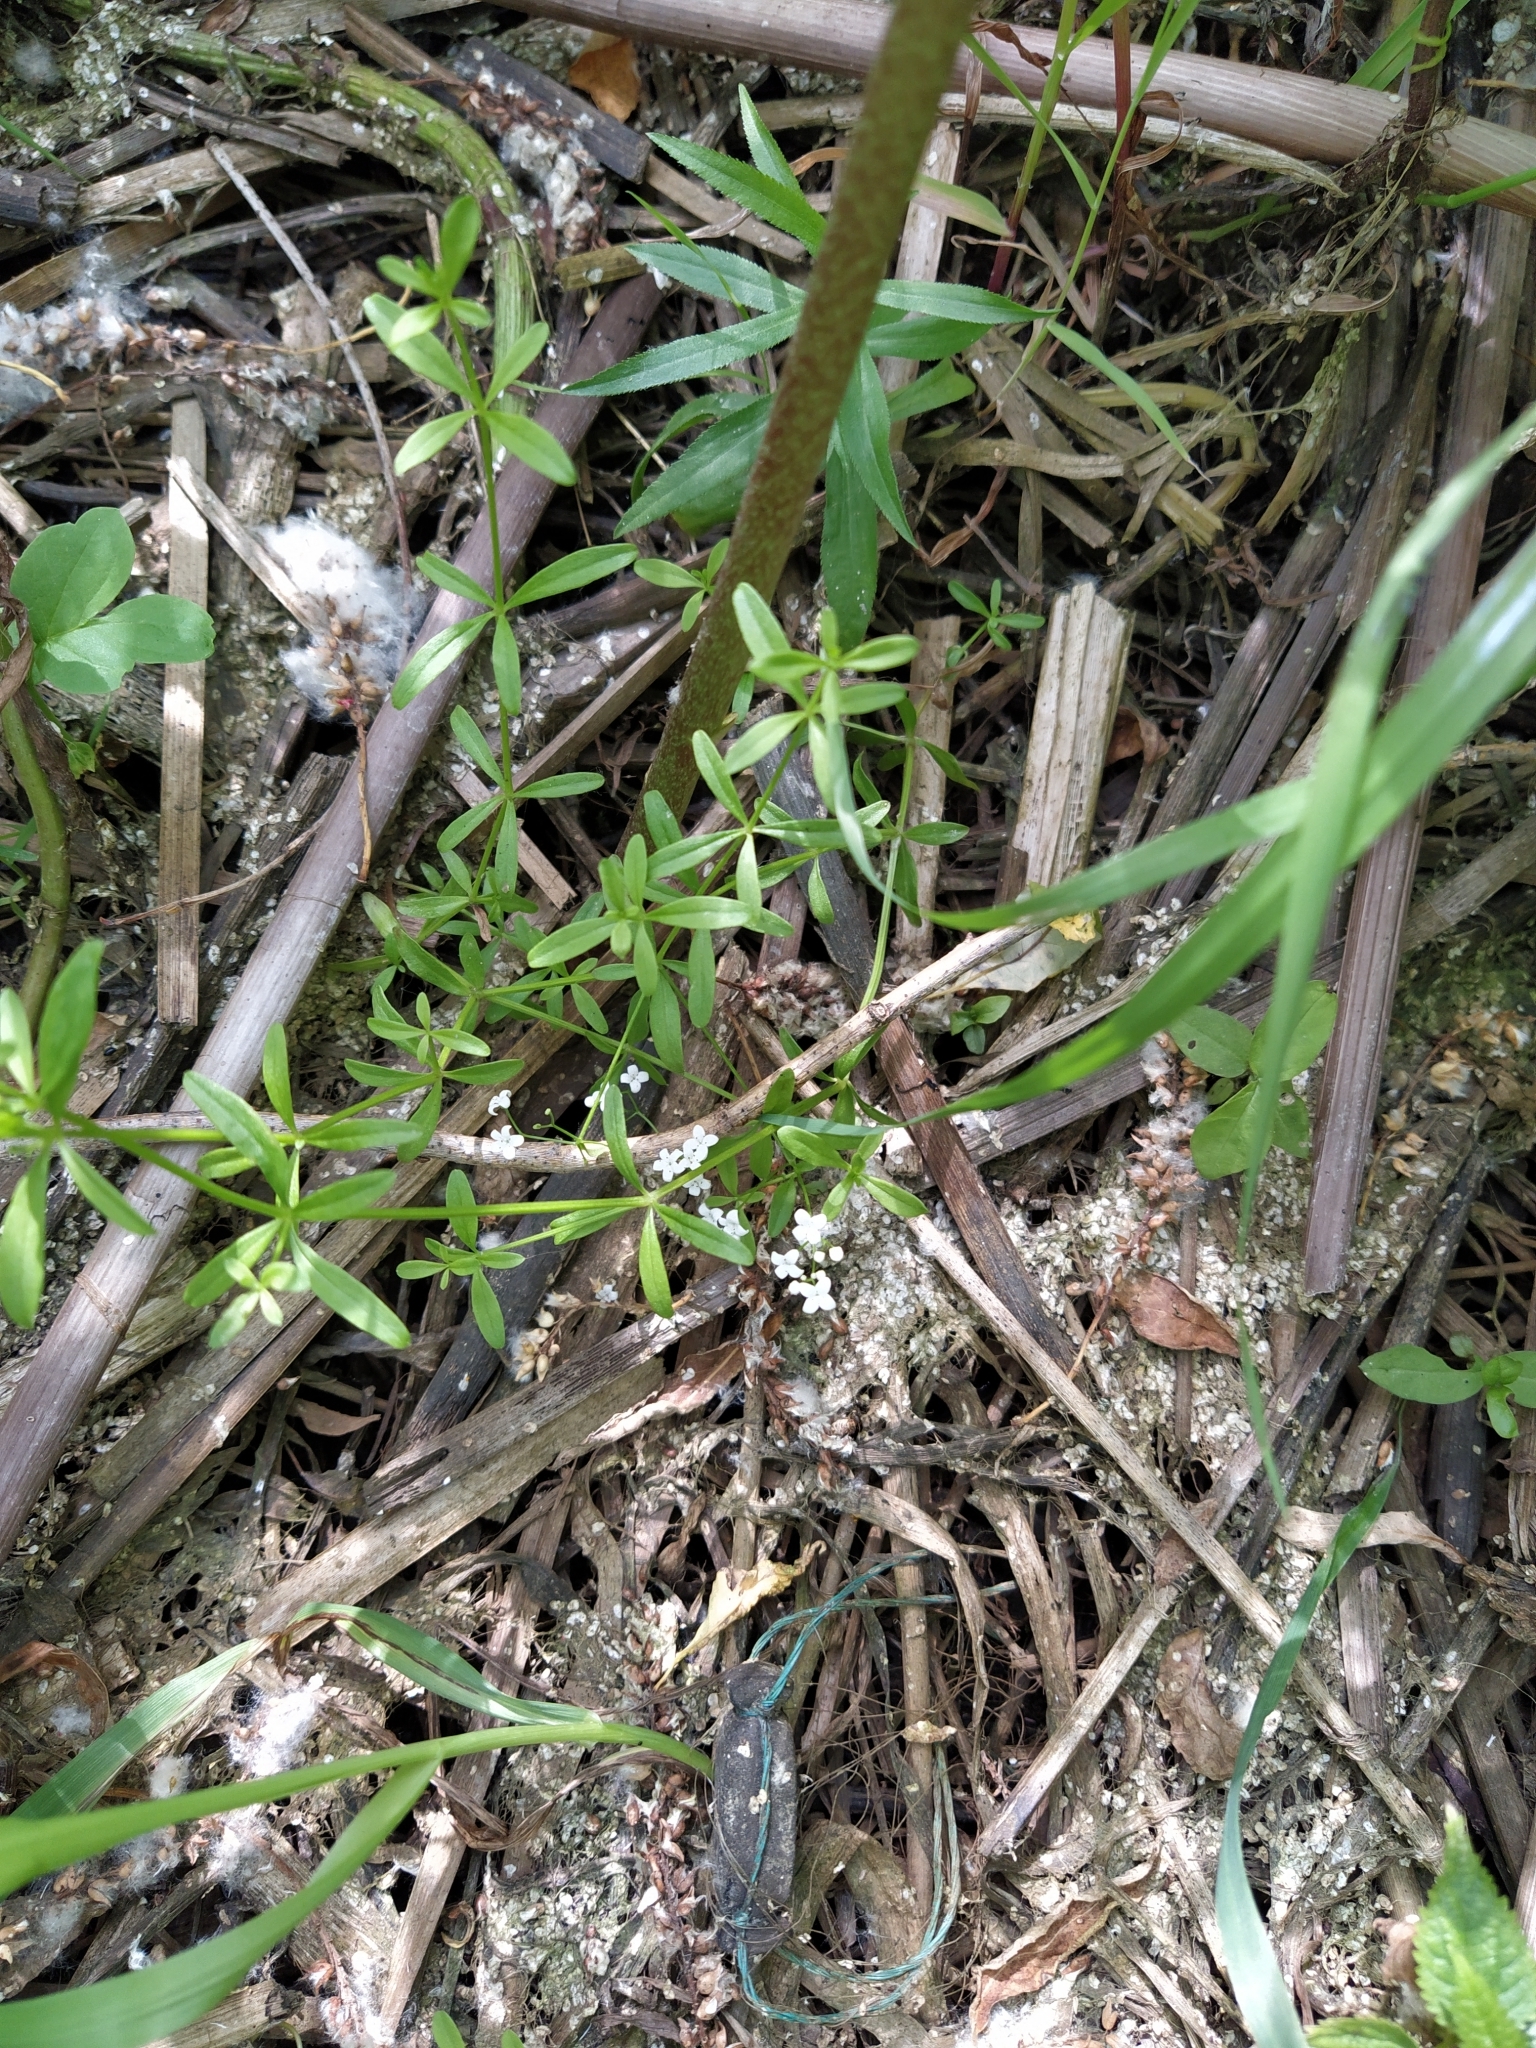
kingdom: Plantae
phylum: Tracheophyta
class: Magnoliopsida
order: Gentianales
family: Rubiaceae
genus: Galium
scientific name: Galium palustre
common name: Common marsh-bedstraw
